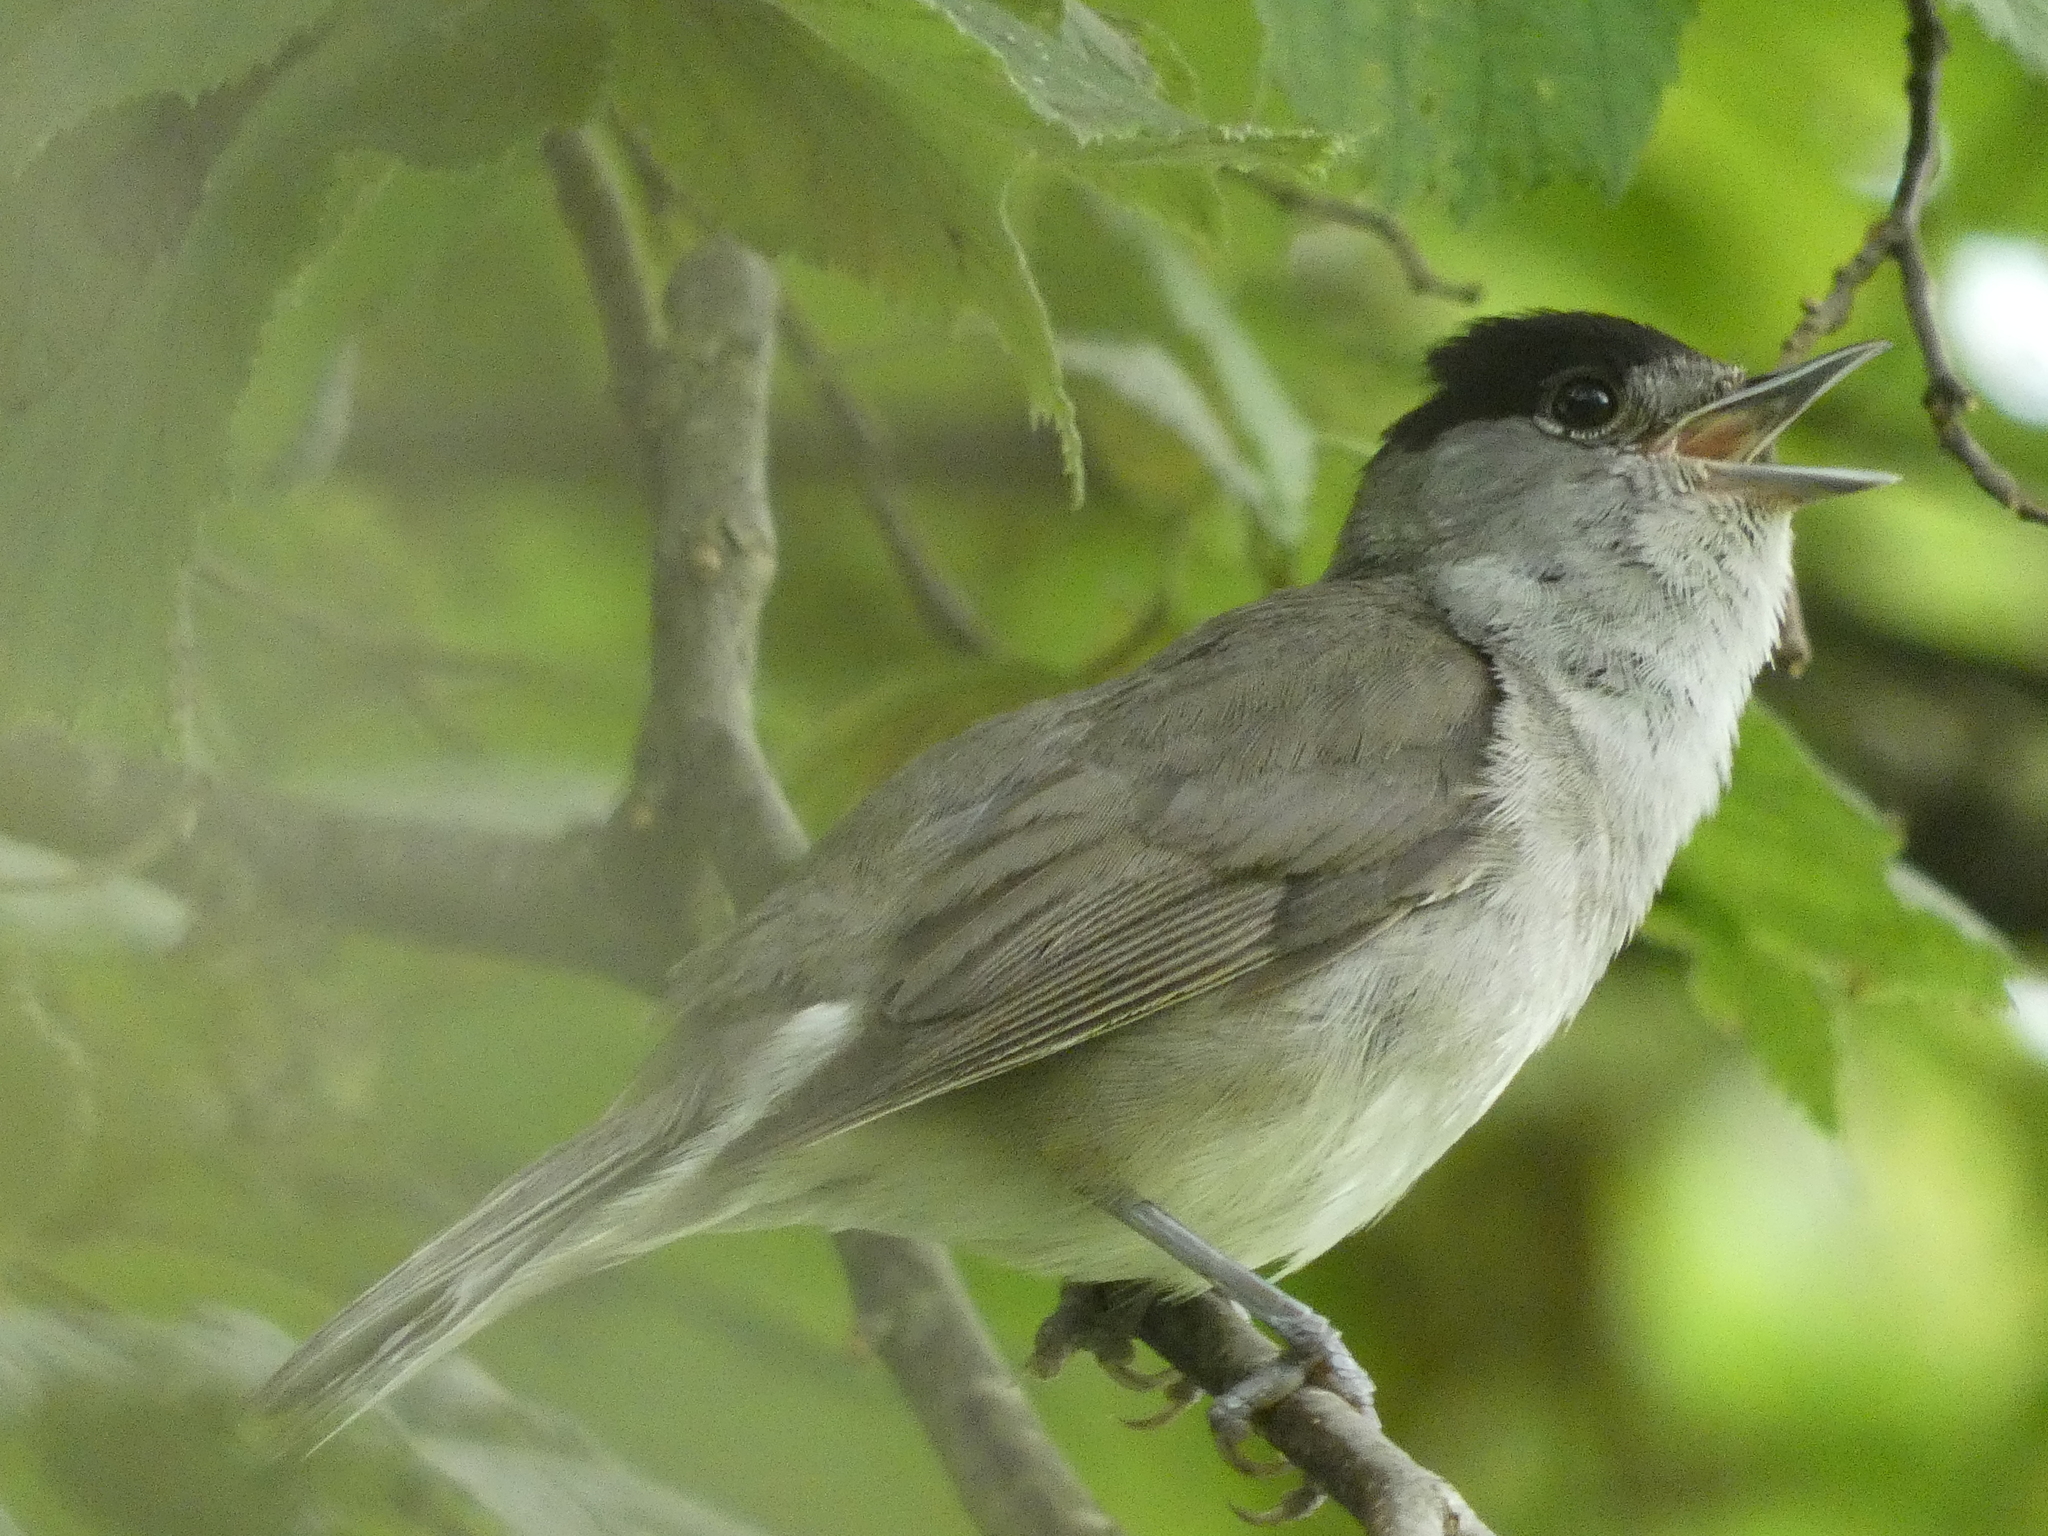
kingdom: Animalia
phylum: Chordata
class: Aves
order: Passeriformes
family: Sylviidae
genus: Sylvia
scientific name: Sylvia atricapilla
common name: Eurasian blackcap
